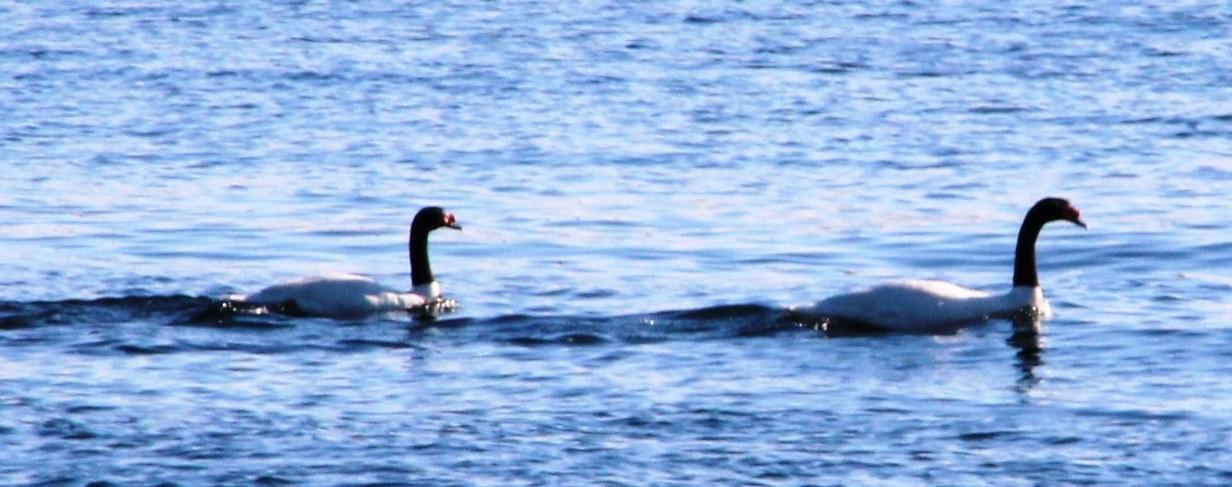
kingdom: Animalia
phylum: Chordata
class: Aves
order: Anseriformes
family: Anatidae
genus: Cygnus
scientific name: Cygnus melancoryphus
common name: Black-necked swan
